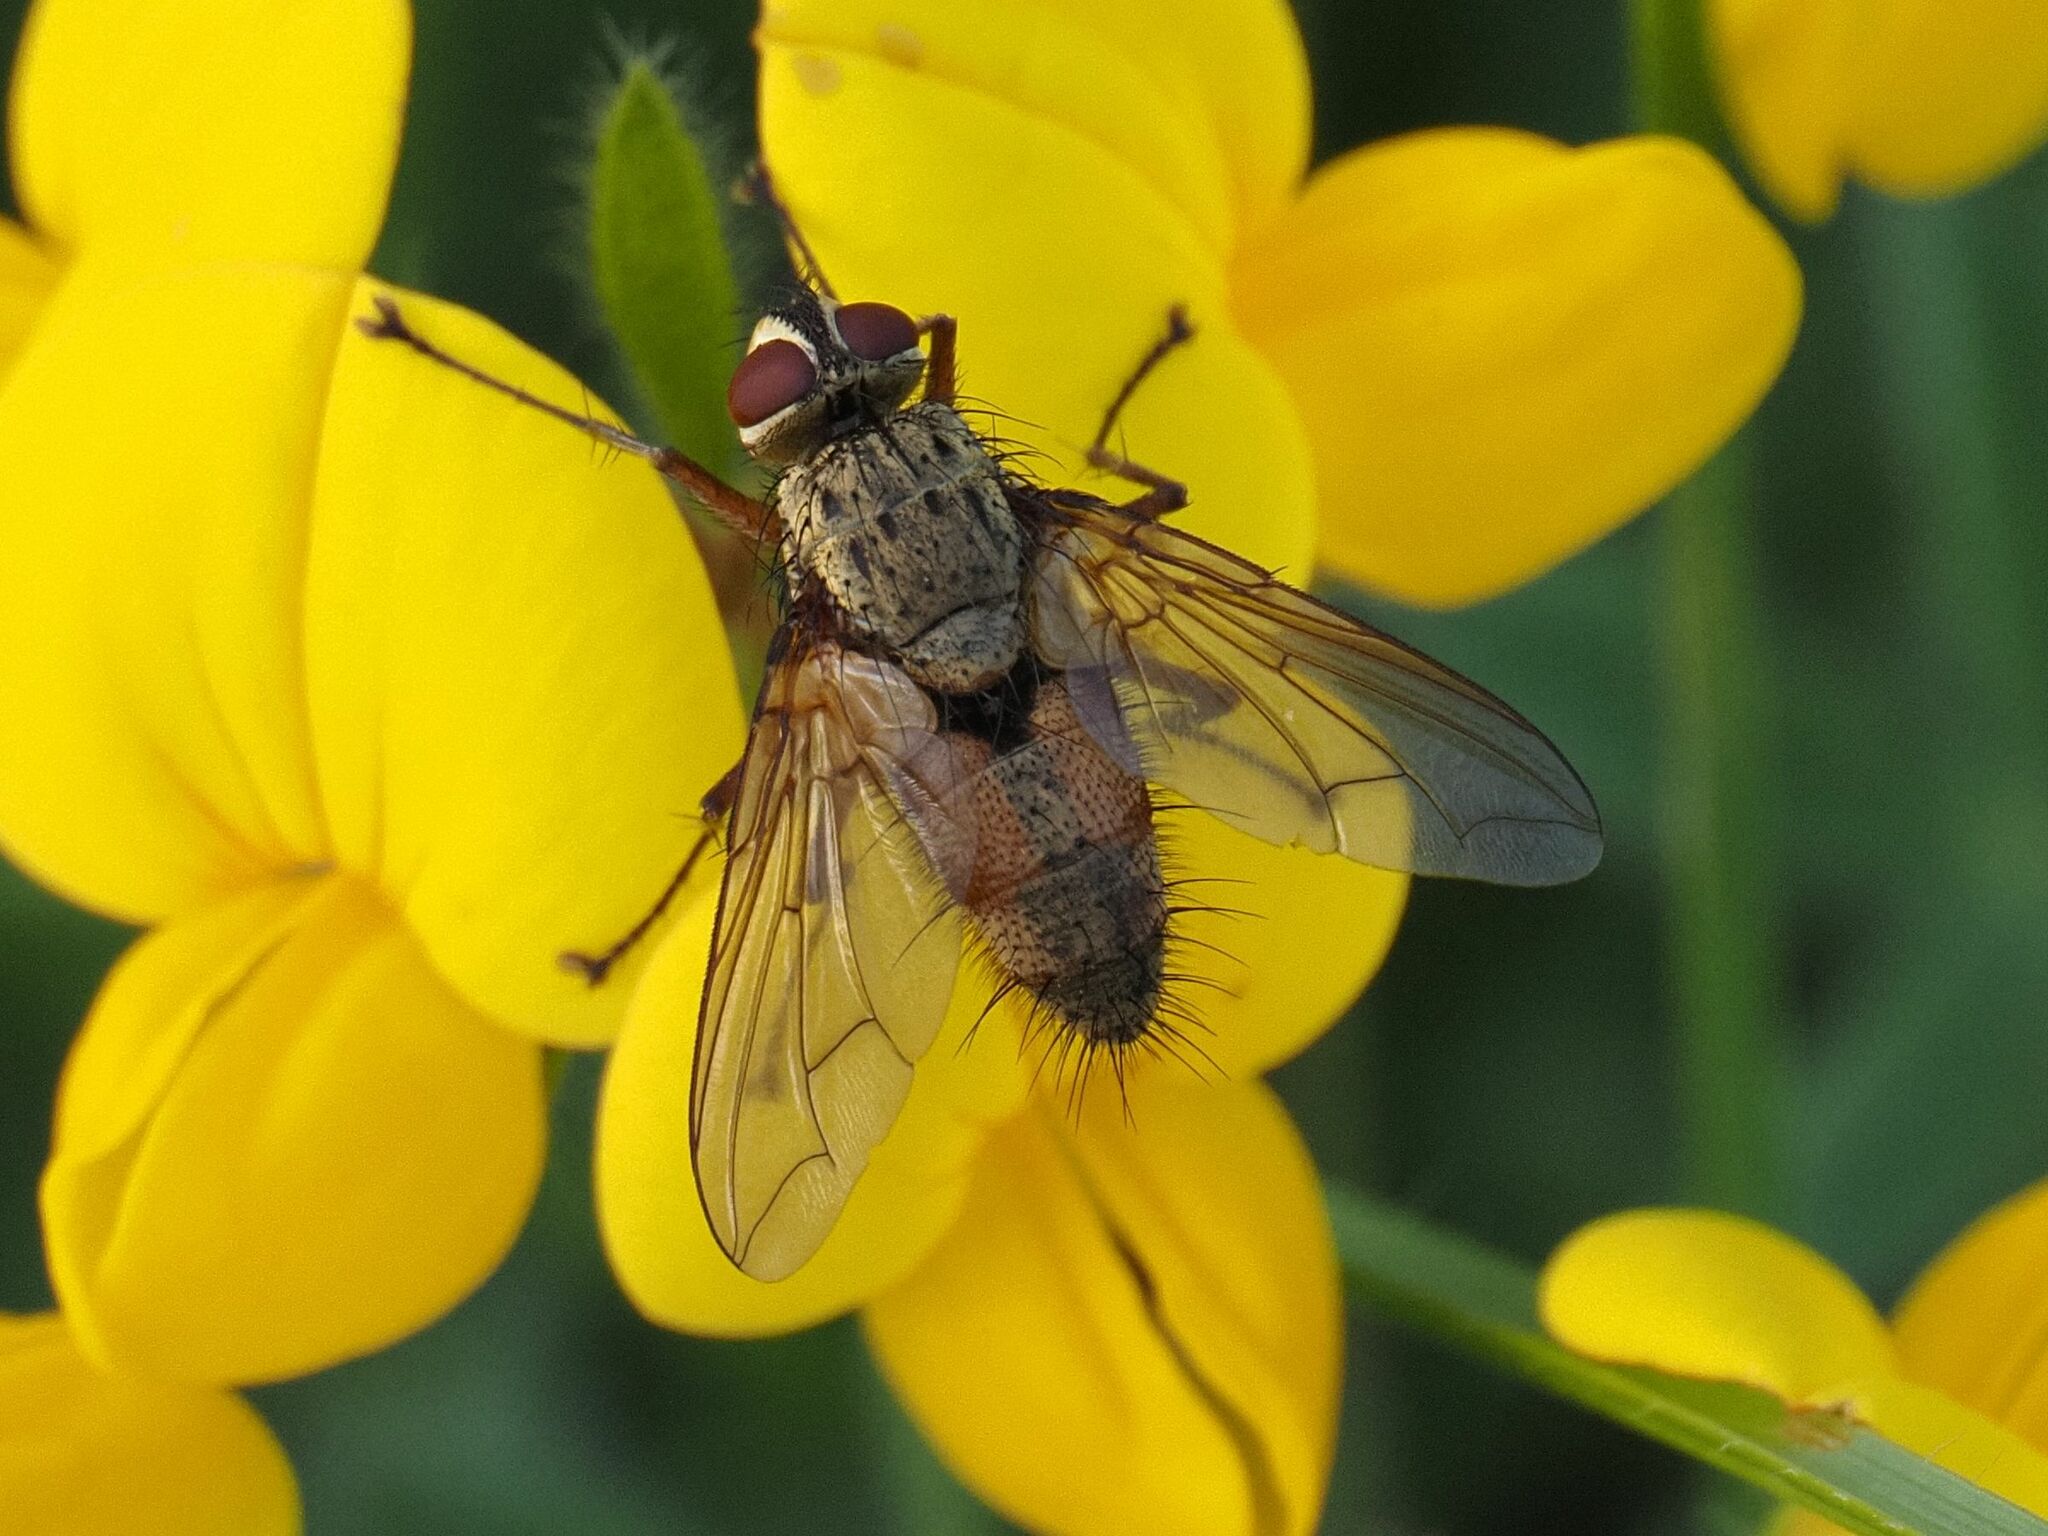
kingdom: Animalia
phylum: Arthropoda
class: Insecta
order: Diptera
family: Tachinidae
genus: Dexia
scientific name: Dexia rustica
